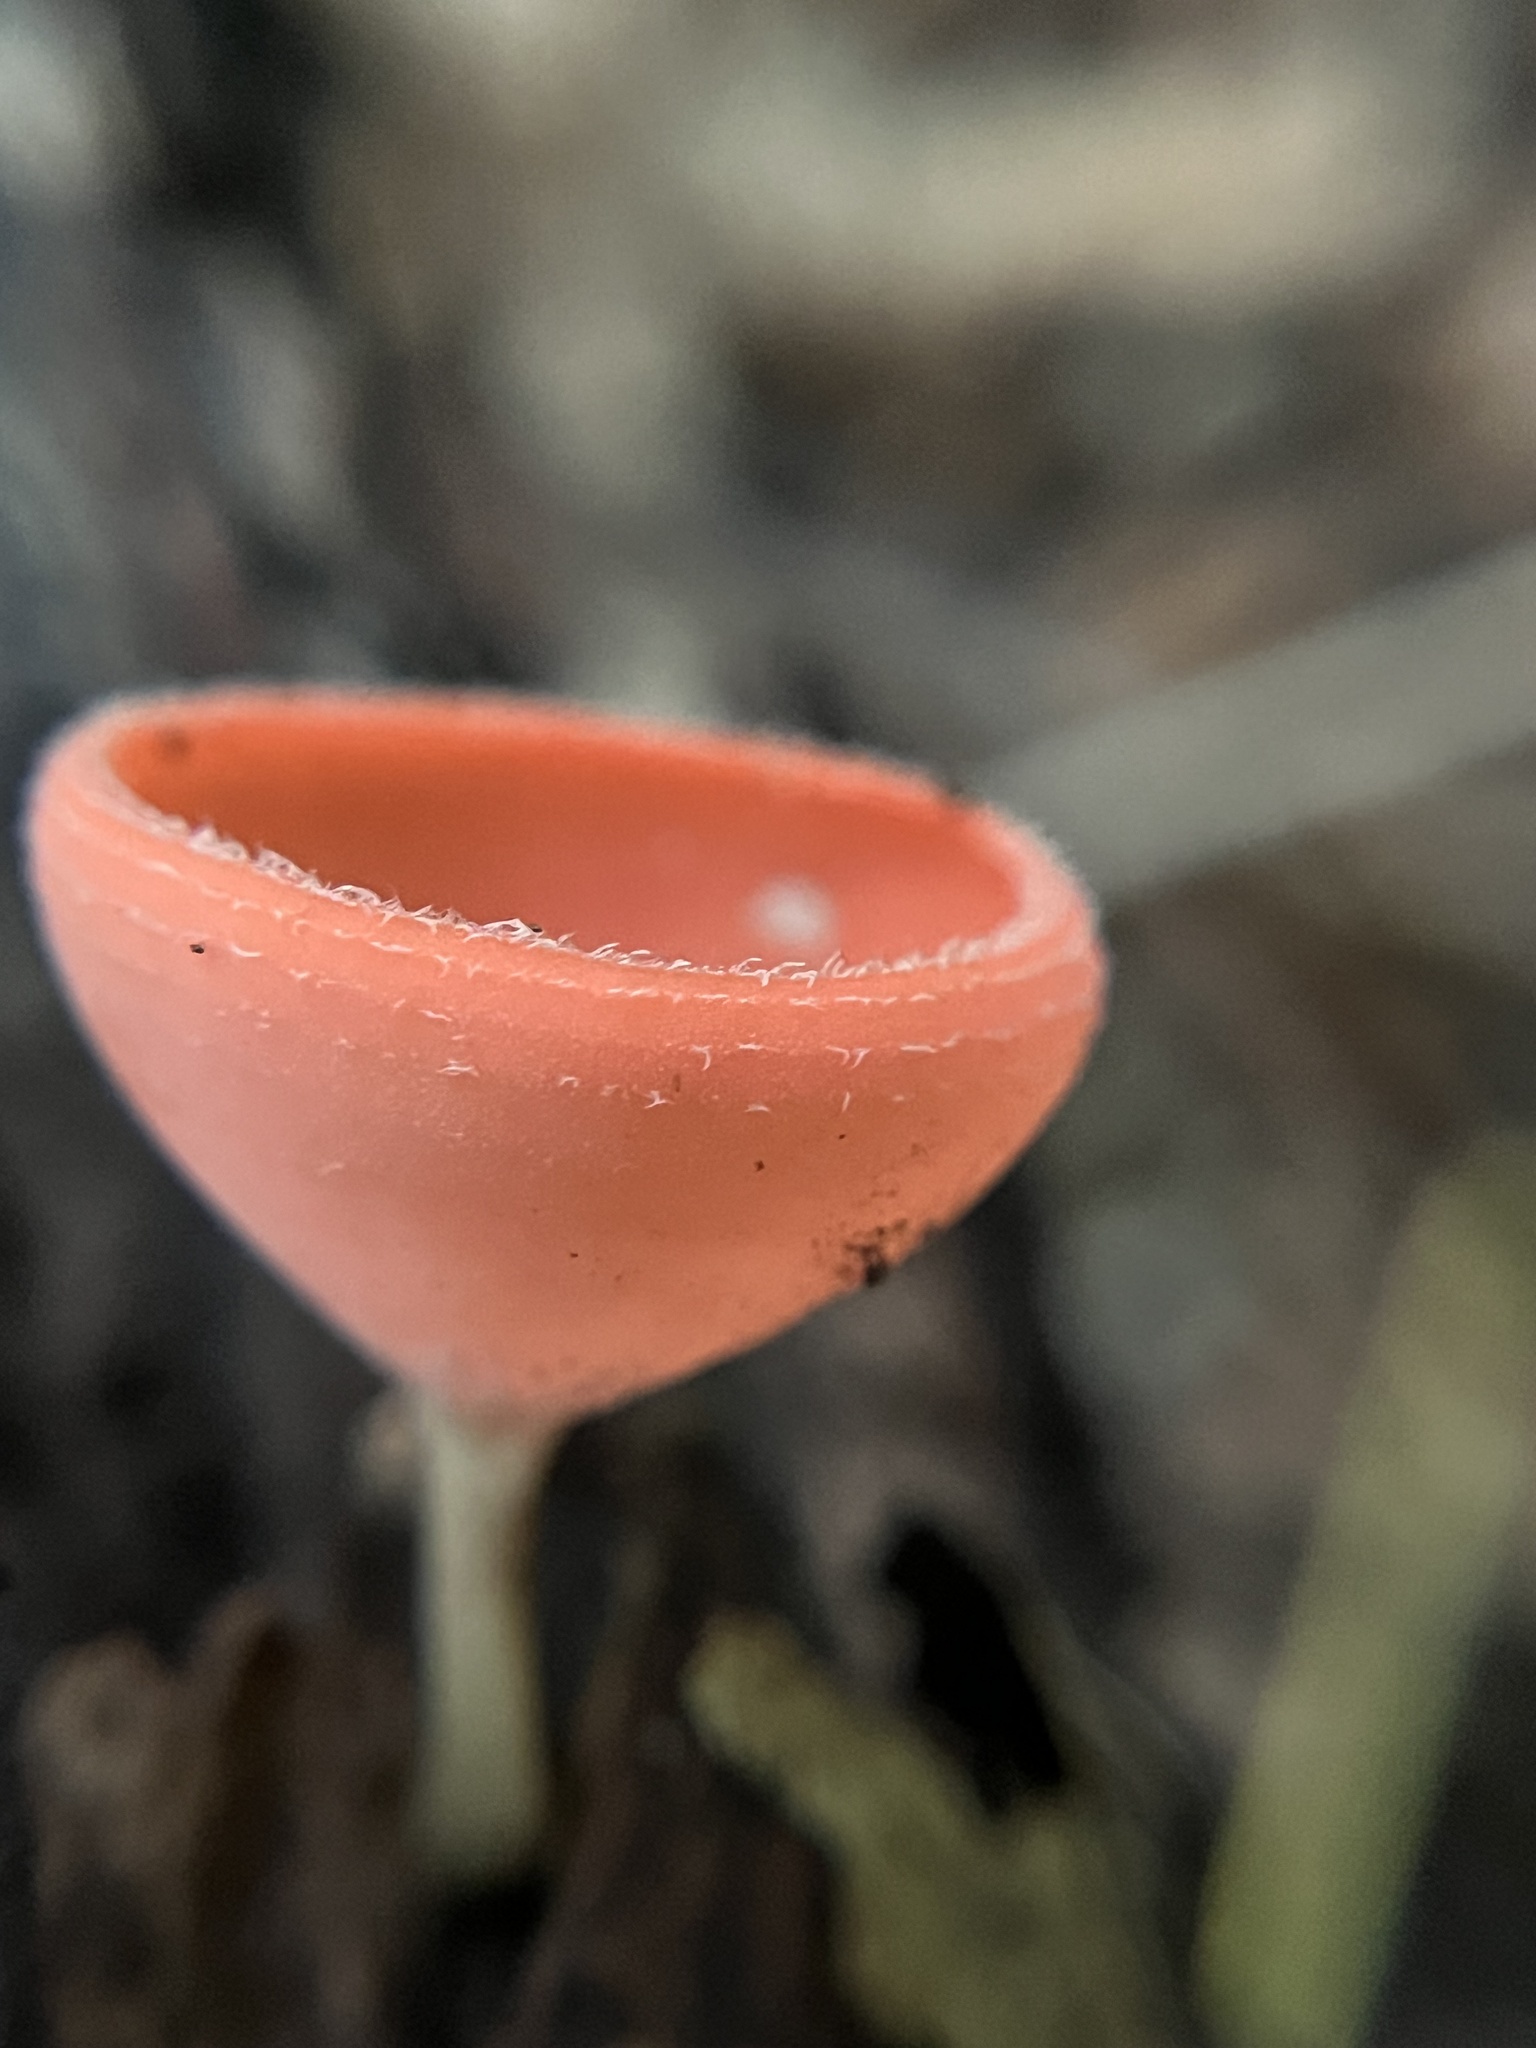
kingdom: Fungi
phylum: Ascomycota
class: Pezizomycetes
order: Pezizales
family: Sarcoscyphaceae
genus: Cookeina
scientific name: Cookeina speciosa
